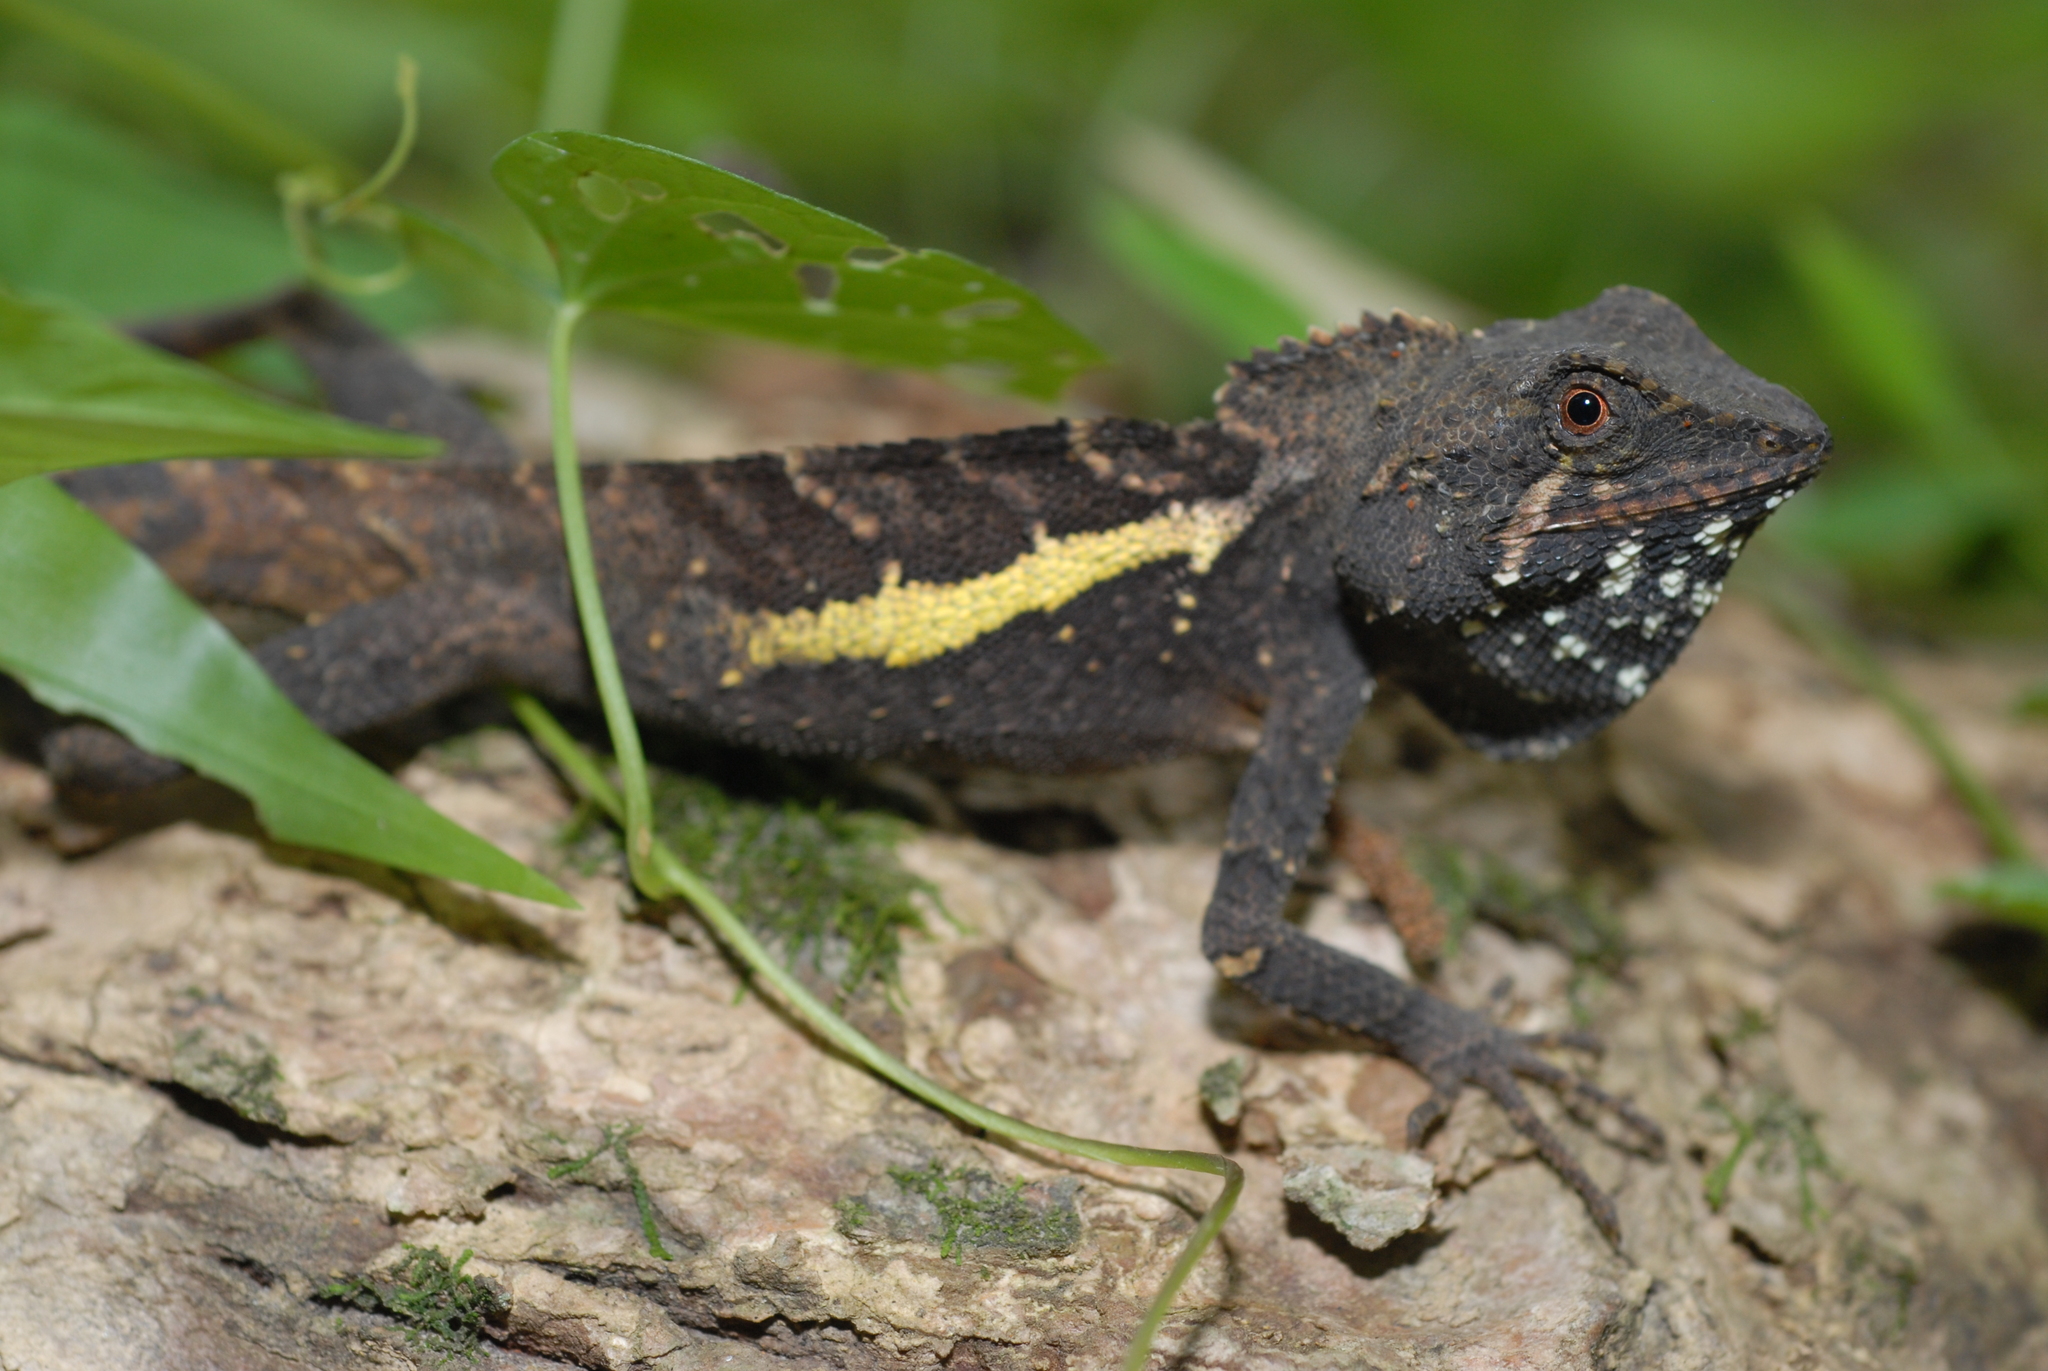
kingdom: Animalia
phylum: Chordata
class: Squamata
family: Agamidae
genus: Diploderma
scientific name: Diploderma swinhonis
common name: Taiwan japalure
